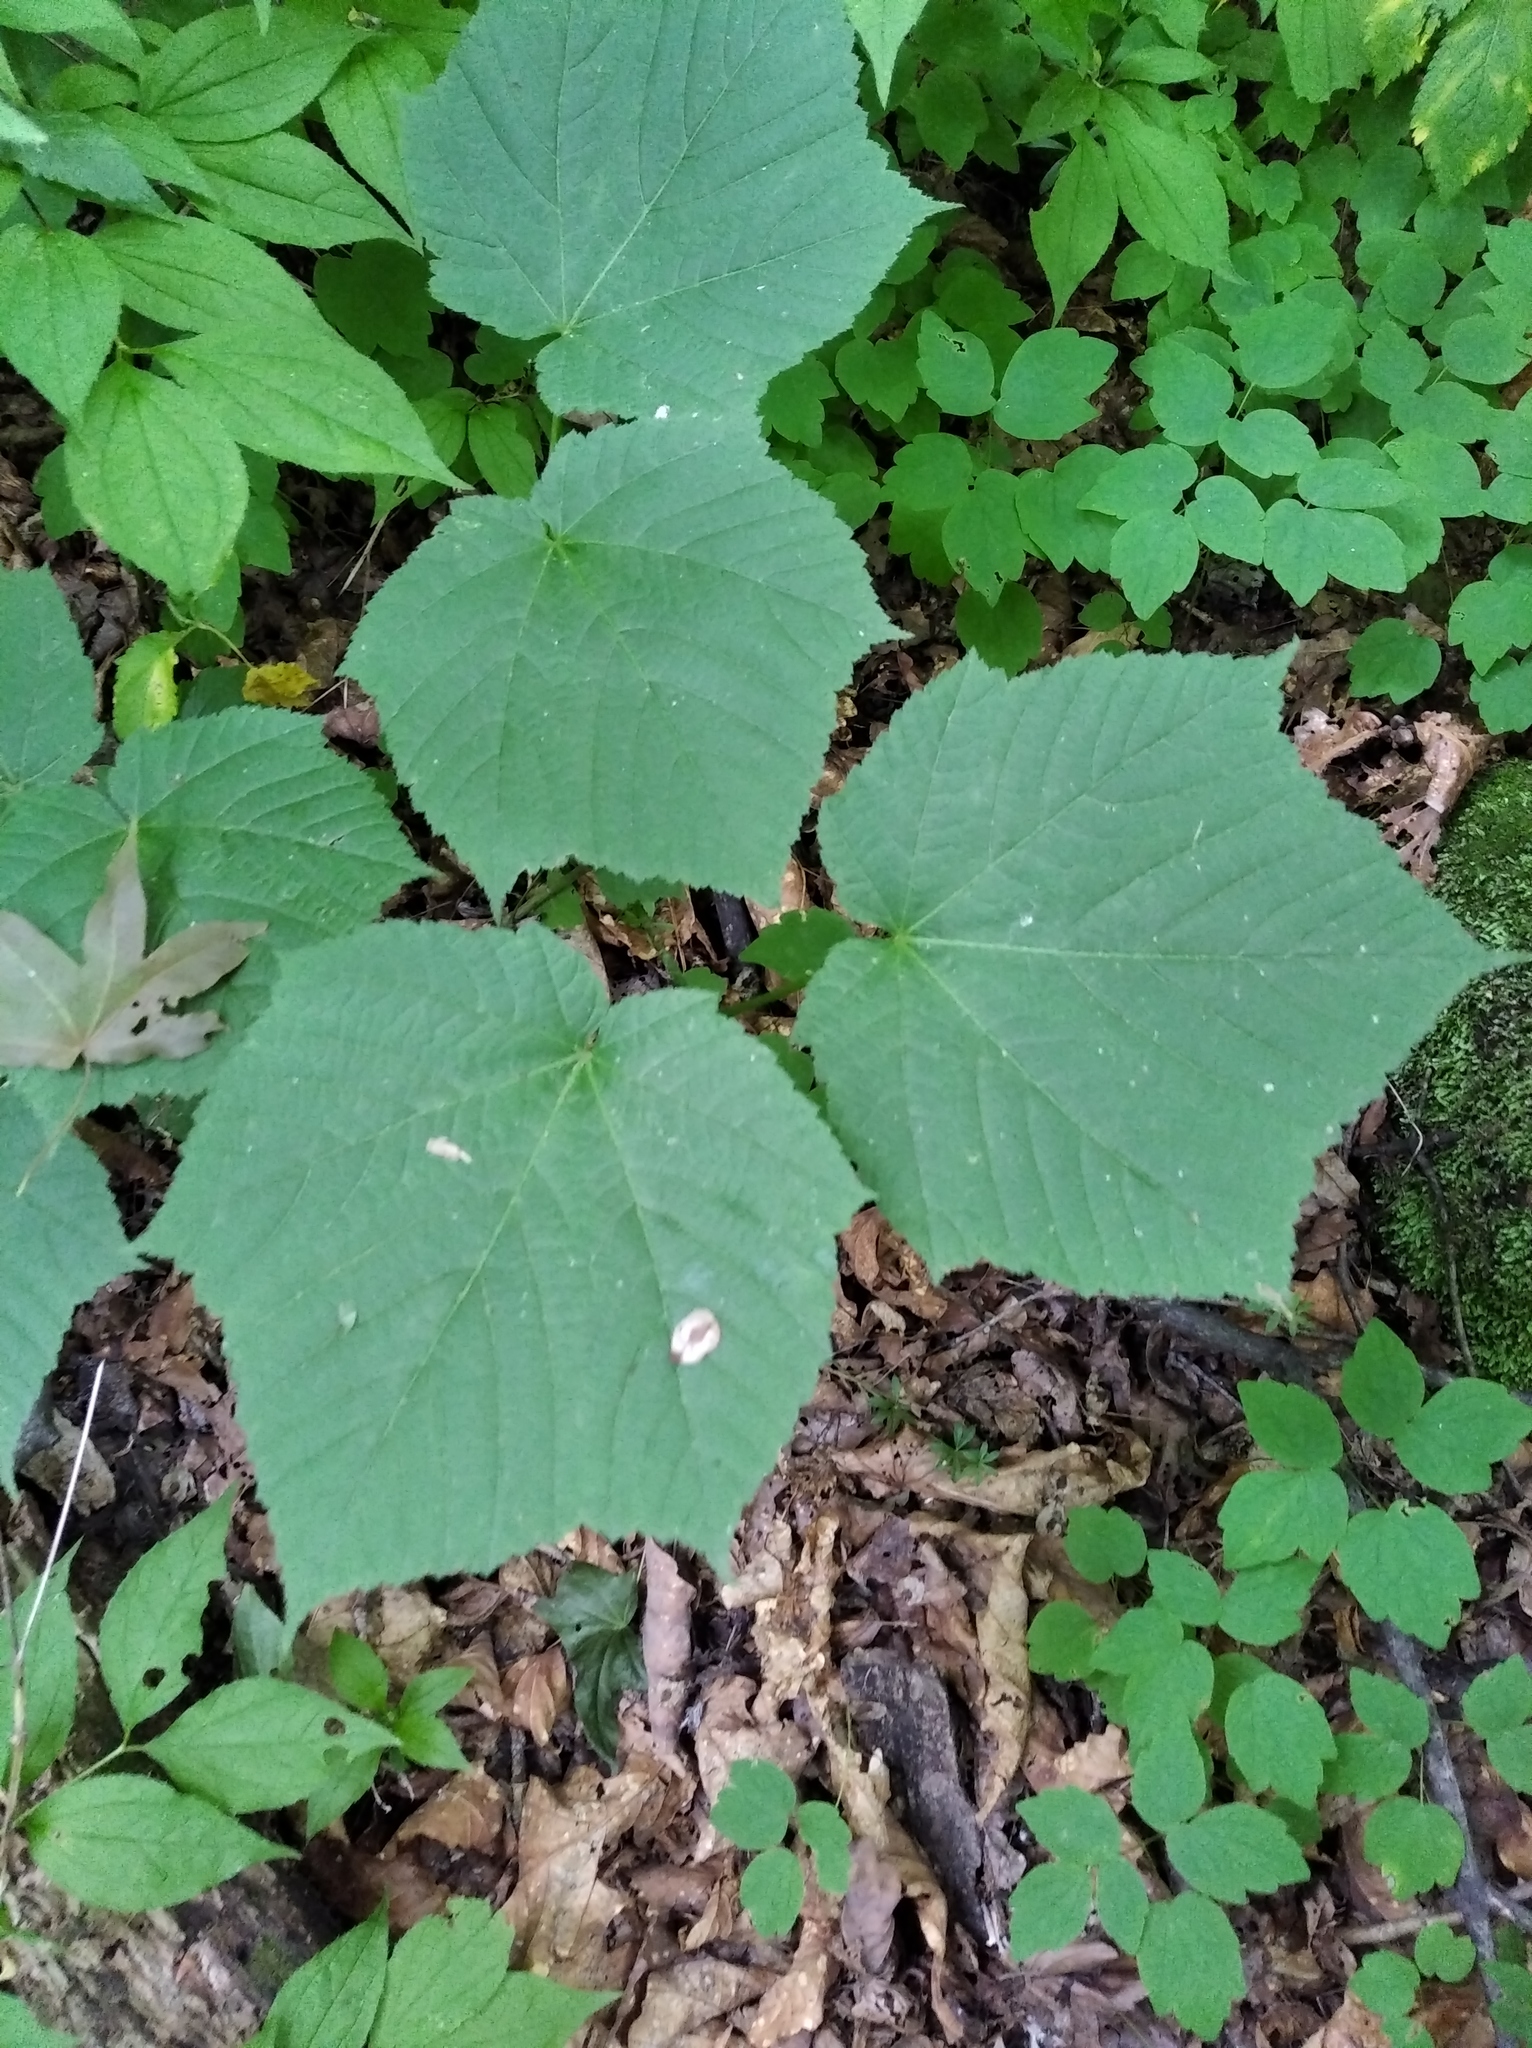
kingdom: Plantae
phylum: Tracheophyta
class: Magnoliopsida
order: Sapindales
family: Sapindaceae
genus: Acer
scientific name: Acer tegmentosum
